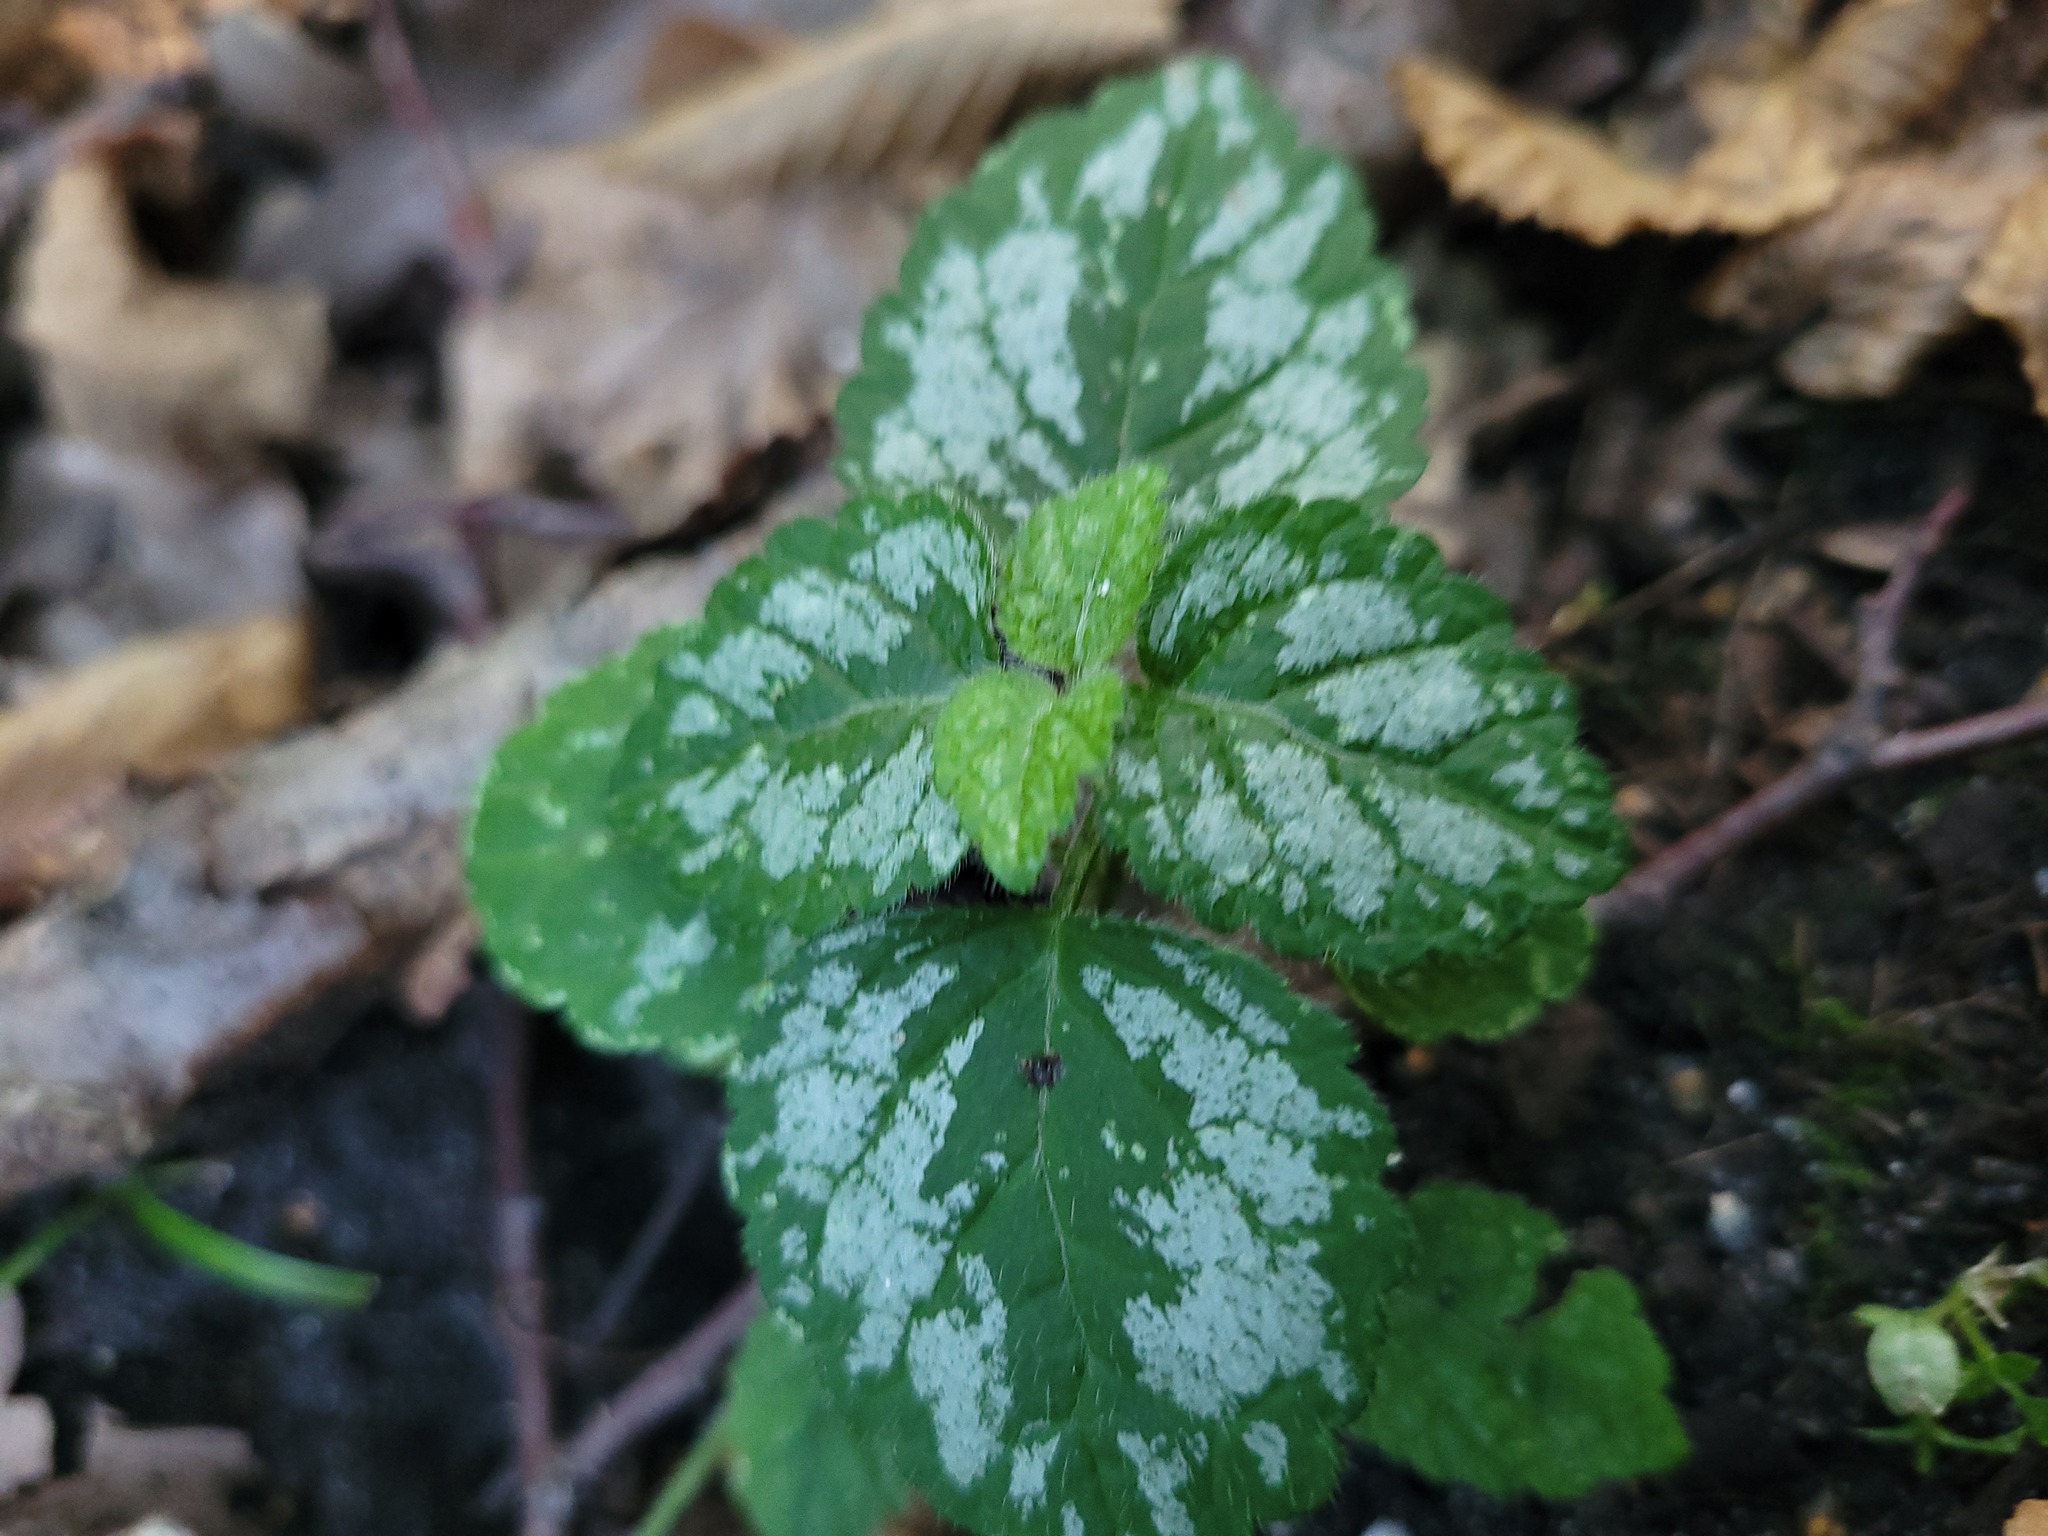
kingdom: Plantae
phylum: Tracheophyta
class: Magnoliopsida
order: Lamiales
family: Lamiaceae
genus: Lamium
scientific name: Lamium galeobdolon
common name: Yellow archangel
